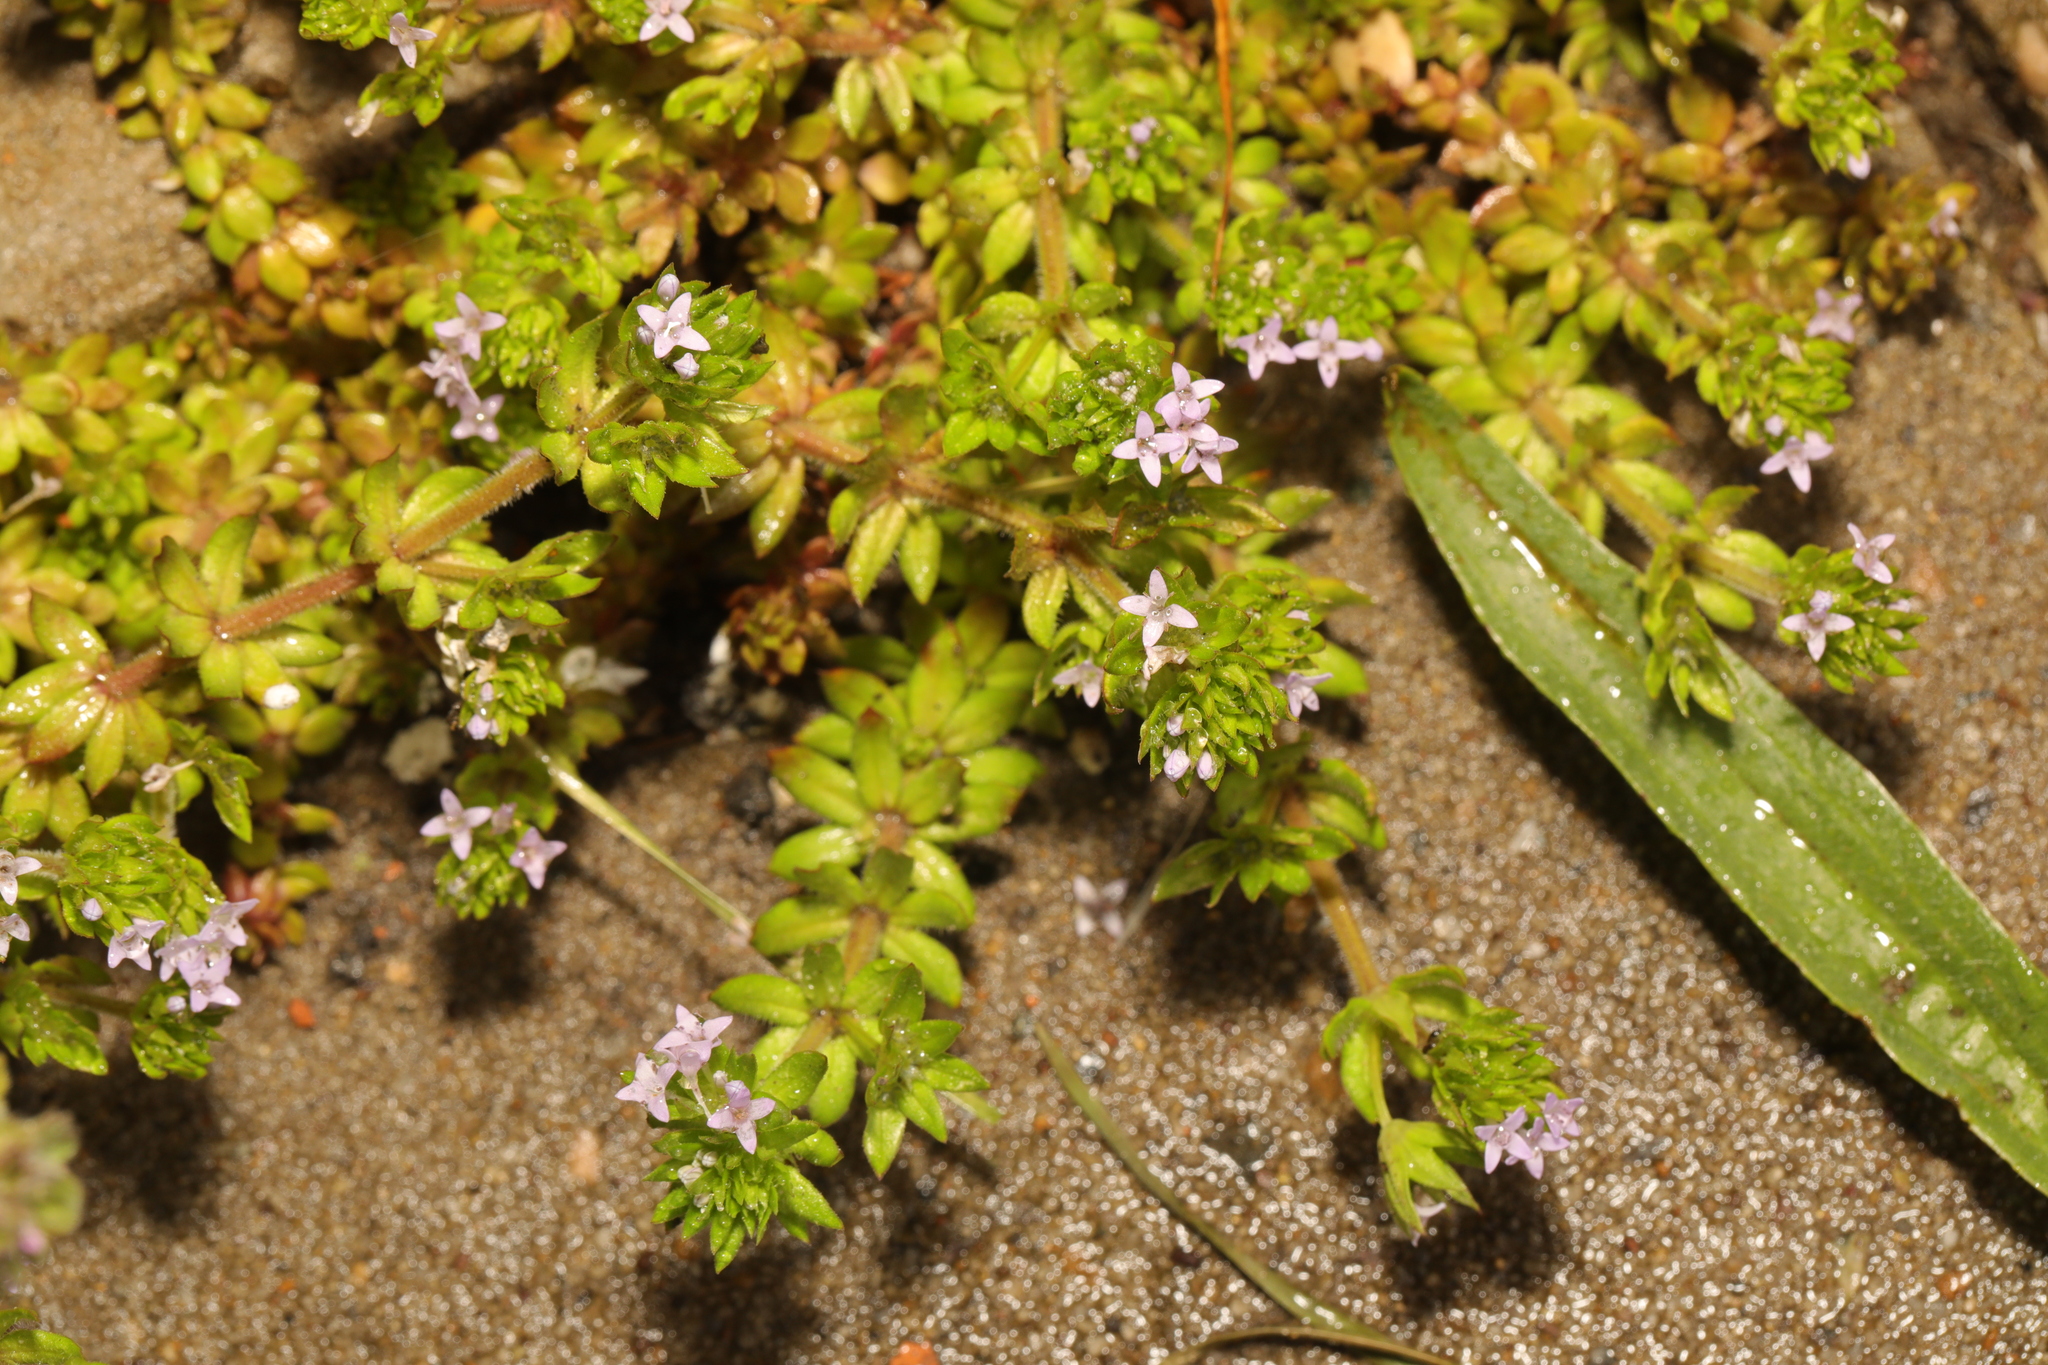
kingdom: Plantae
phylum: Tracheophyta
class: Magnoliopsida
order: Gentianales
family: Rubiaceae
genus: Sherardia
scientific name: Sherardia arvensis
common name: Field madder
